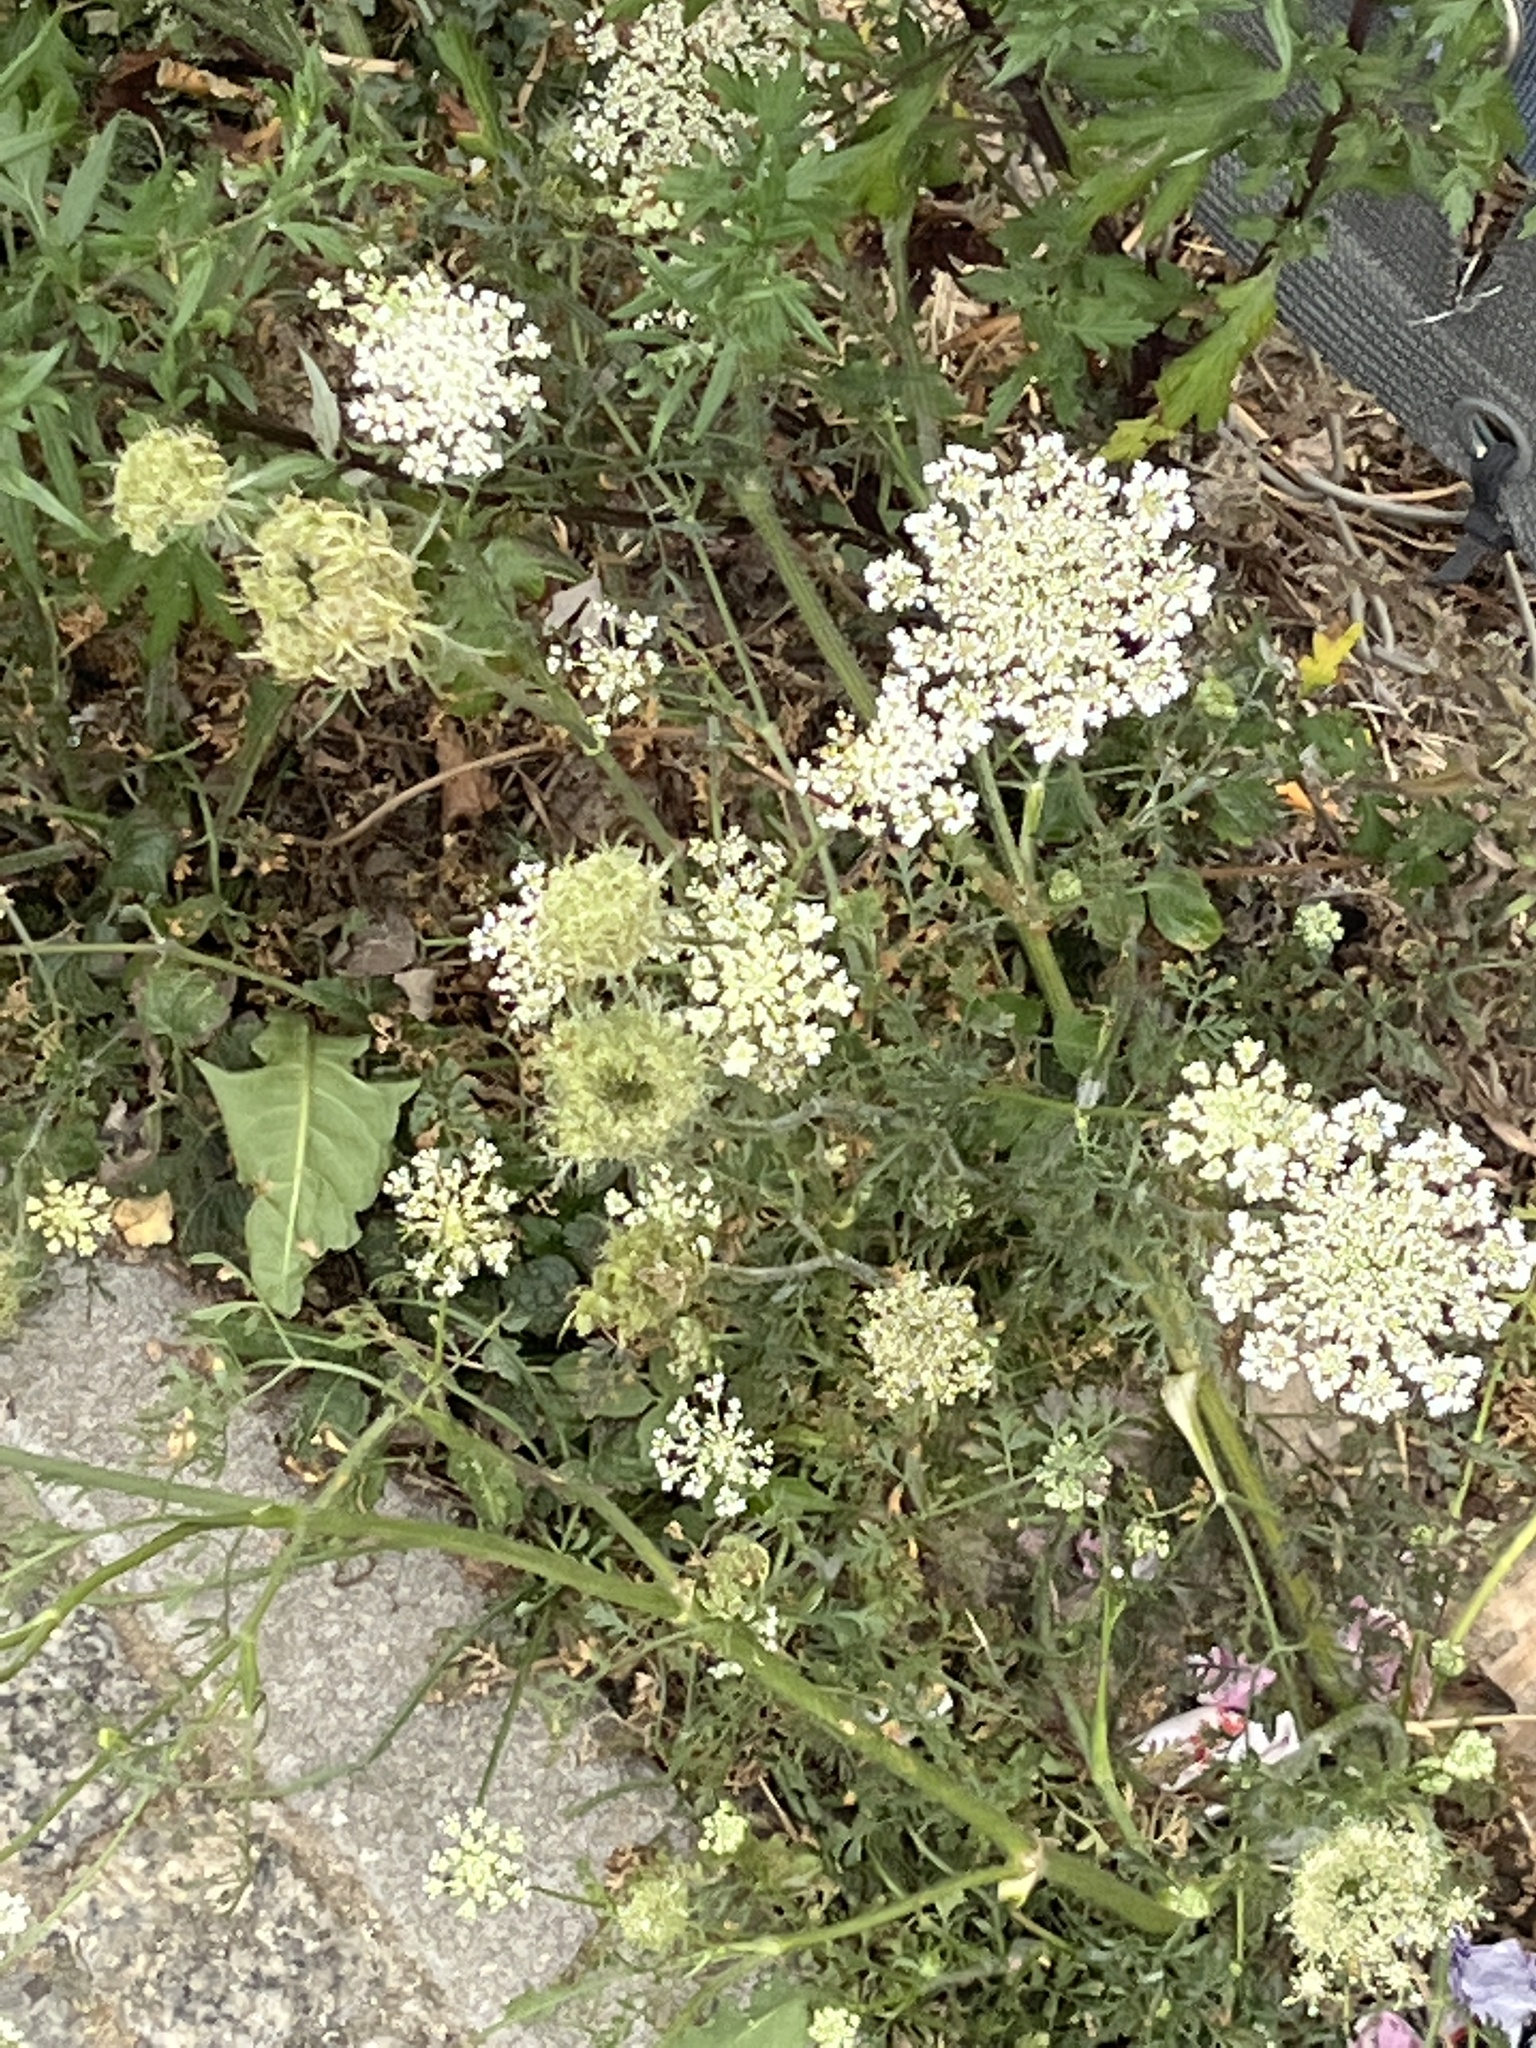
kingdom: Plantae
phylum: Tracheophyta
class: Magnoliopsida
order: Apiales
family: Apiaceae
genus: Daucus
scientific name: Daucus carota
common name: Wild carrot
